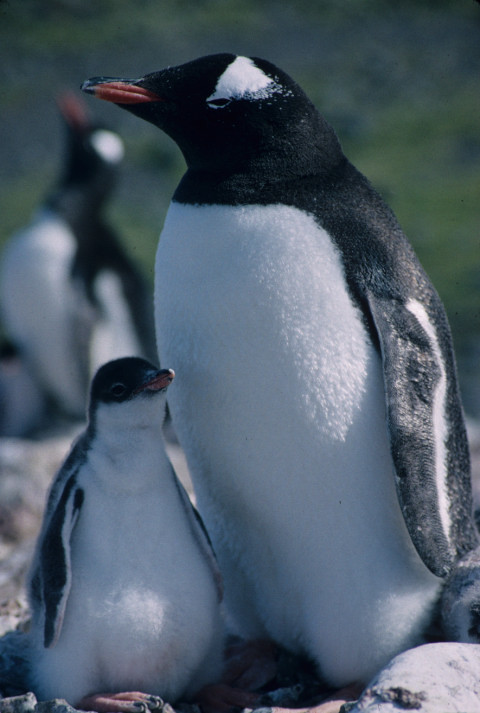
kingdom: Animalia
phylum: Chordata
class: Aves
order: Sphenisciformes
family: Spheniscidae
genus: Pygoscelis
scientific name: Pygoscelis papua
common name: Gentoo penguin
